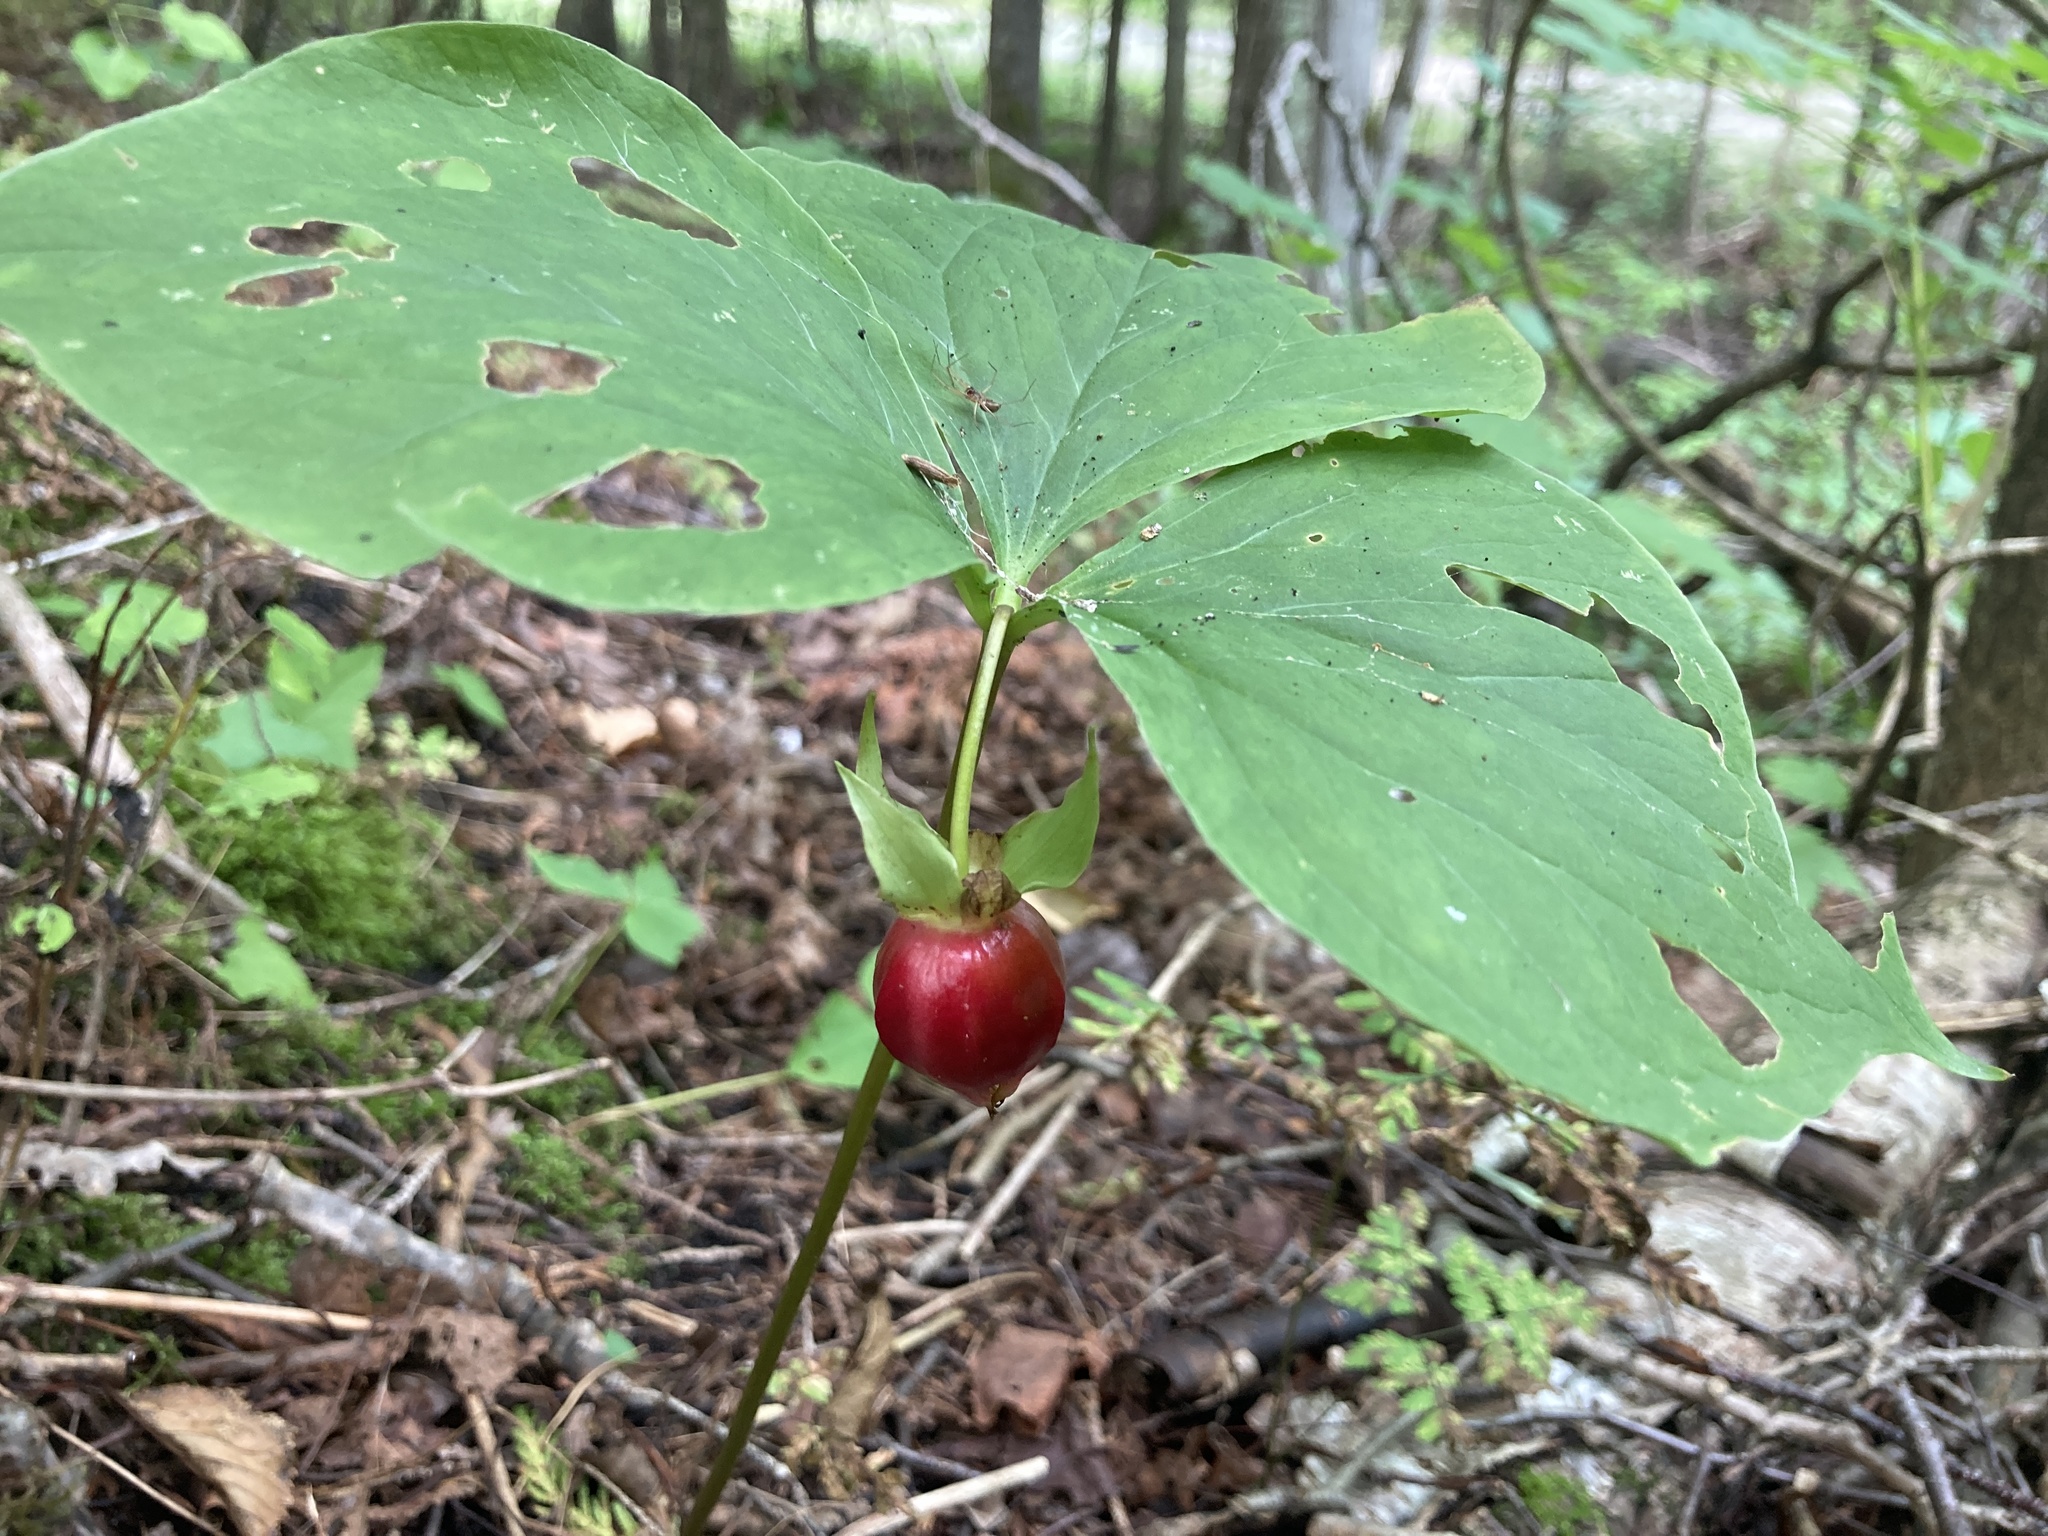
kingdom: Plantae
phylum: Tracheophyta
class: Liliopsida
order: Liliales
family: Melanthiaceae
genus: Trillium
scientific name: Trillium cernuum
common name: Nodding trillium
